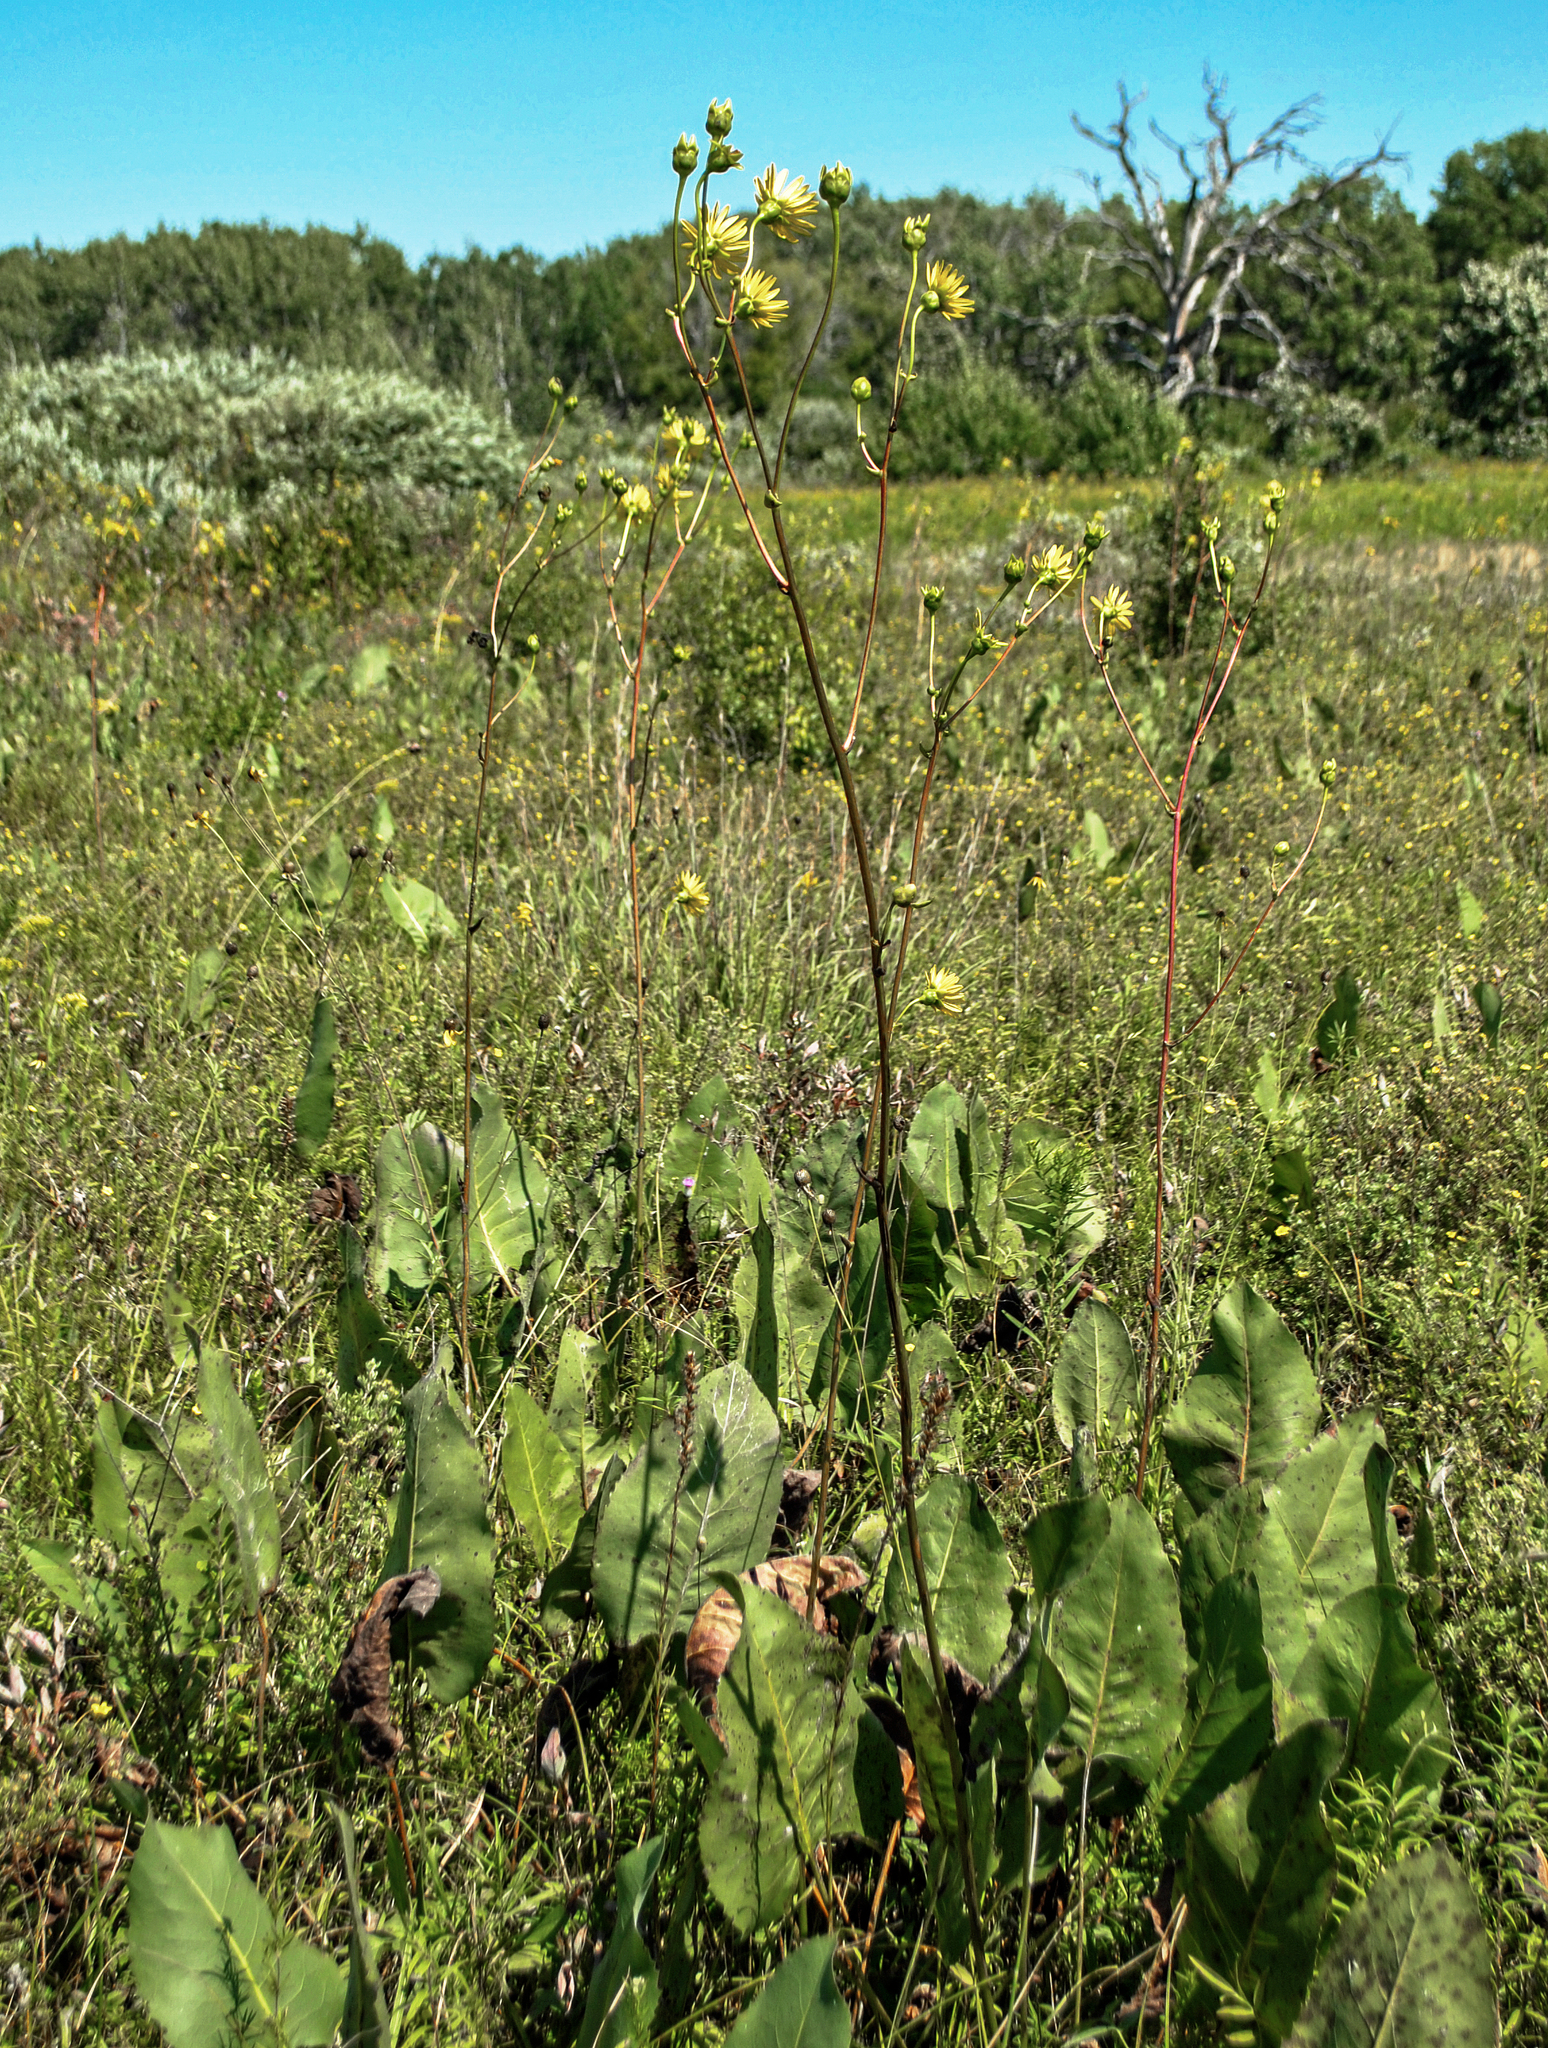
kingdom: Plantae
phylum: Tracheophyta
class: Magnoliopsida
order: Asterales
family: Asteraceae
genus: Silphium
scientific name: Silphium terebinthinaceum
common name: Basal-leaf rosinweed
